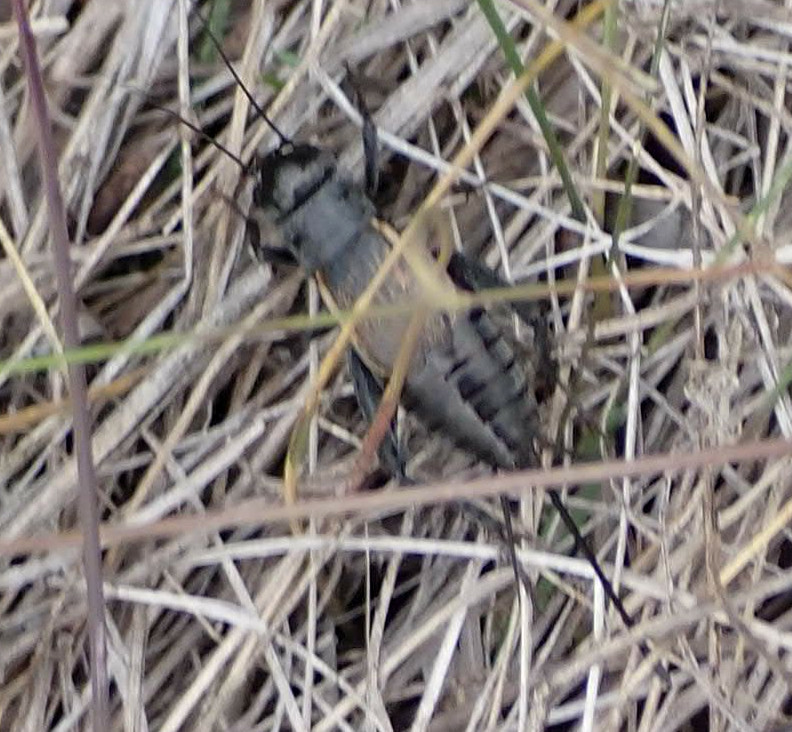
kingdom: Animalia
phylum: Arthropoda
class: Insecta
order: Orthoptera
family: Gryllidae
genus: Gryllus
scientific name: Gryllus pennsylvanicus
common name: Fall field cricket
